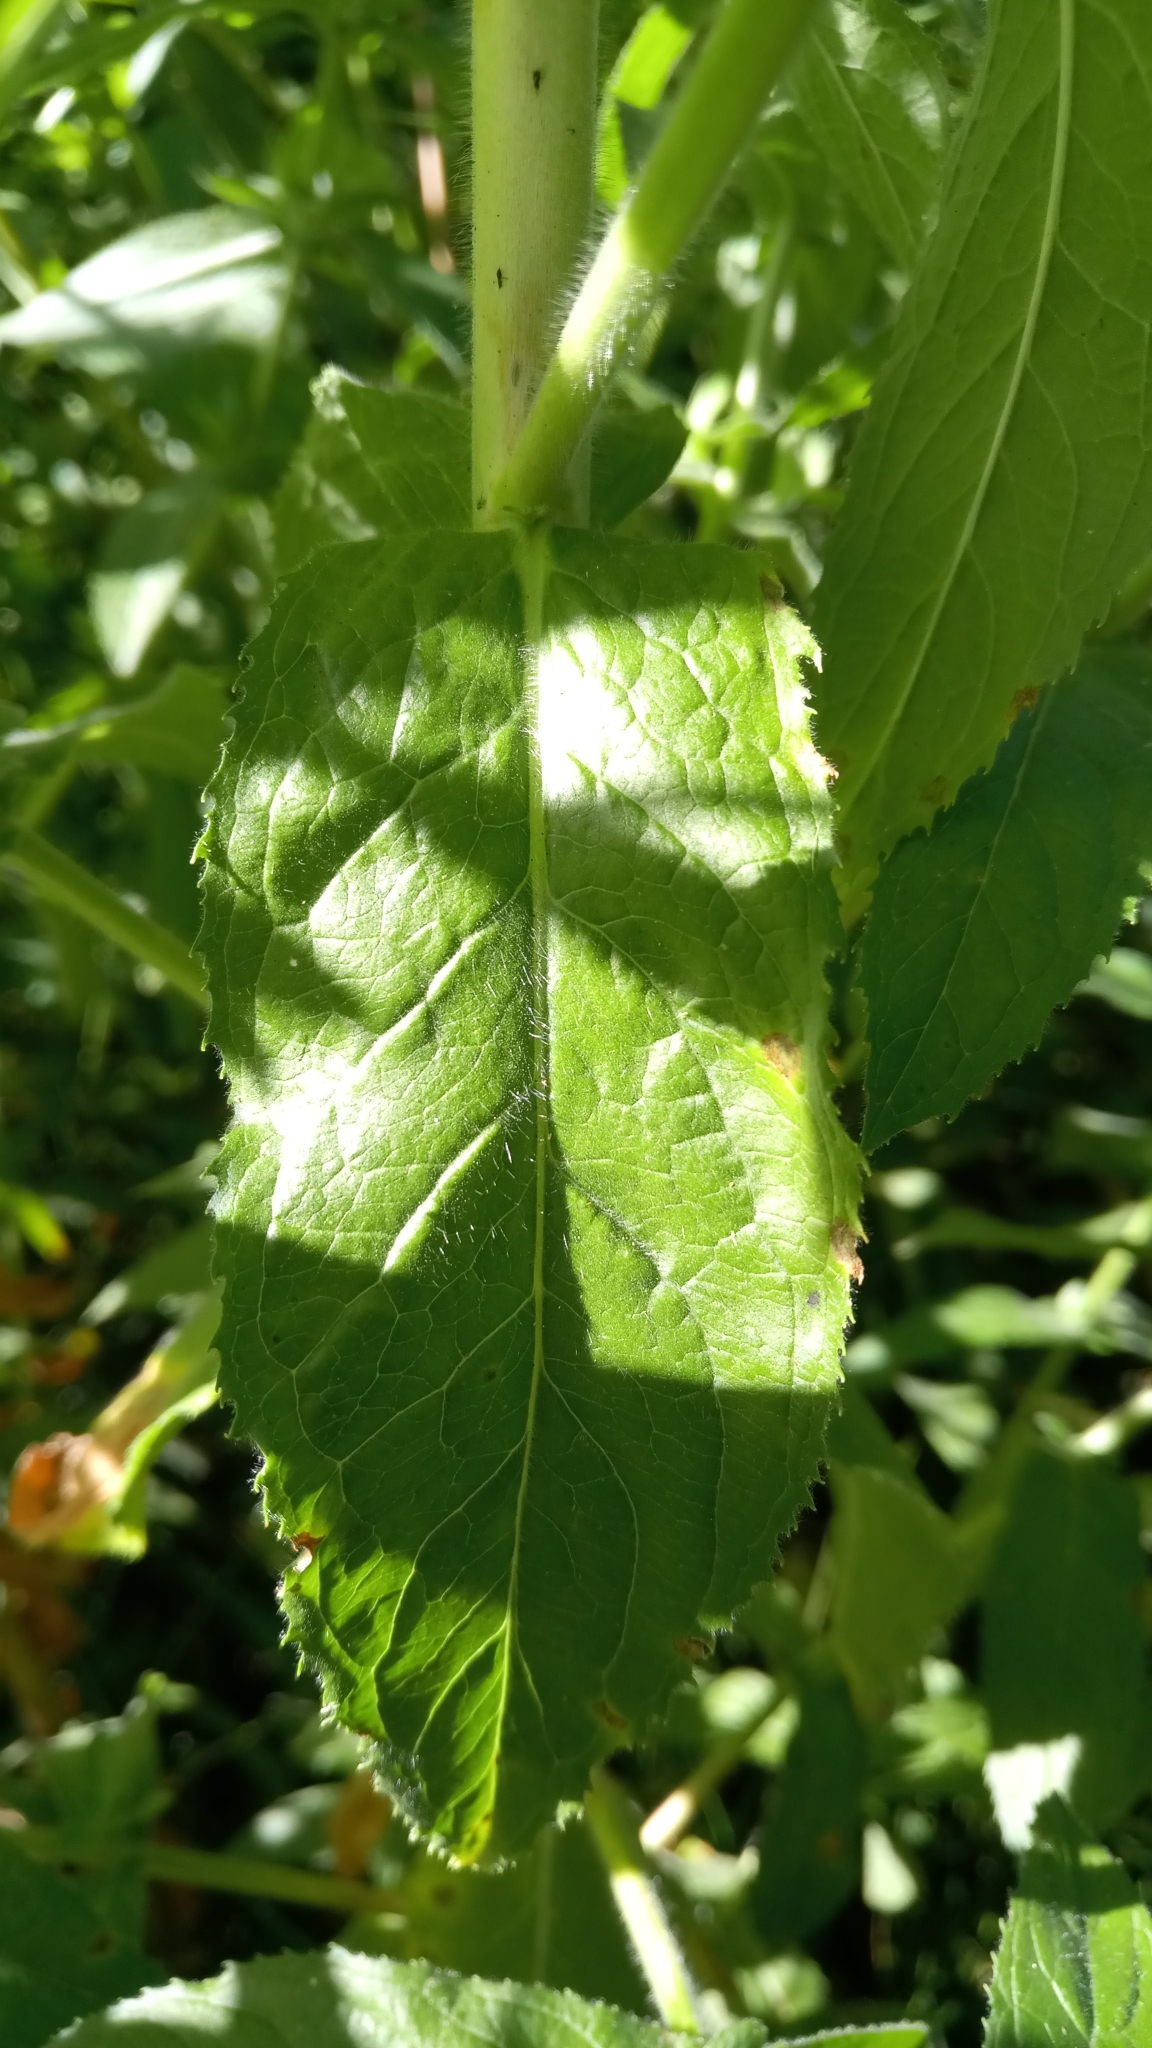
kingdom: Plantae
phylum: Tracheophyta
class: Magnoliopsida
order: Myrtales
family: Onagraceae
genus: Epilobium
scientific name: Epilobium hirsutum
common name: Great willowherb
